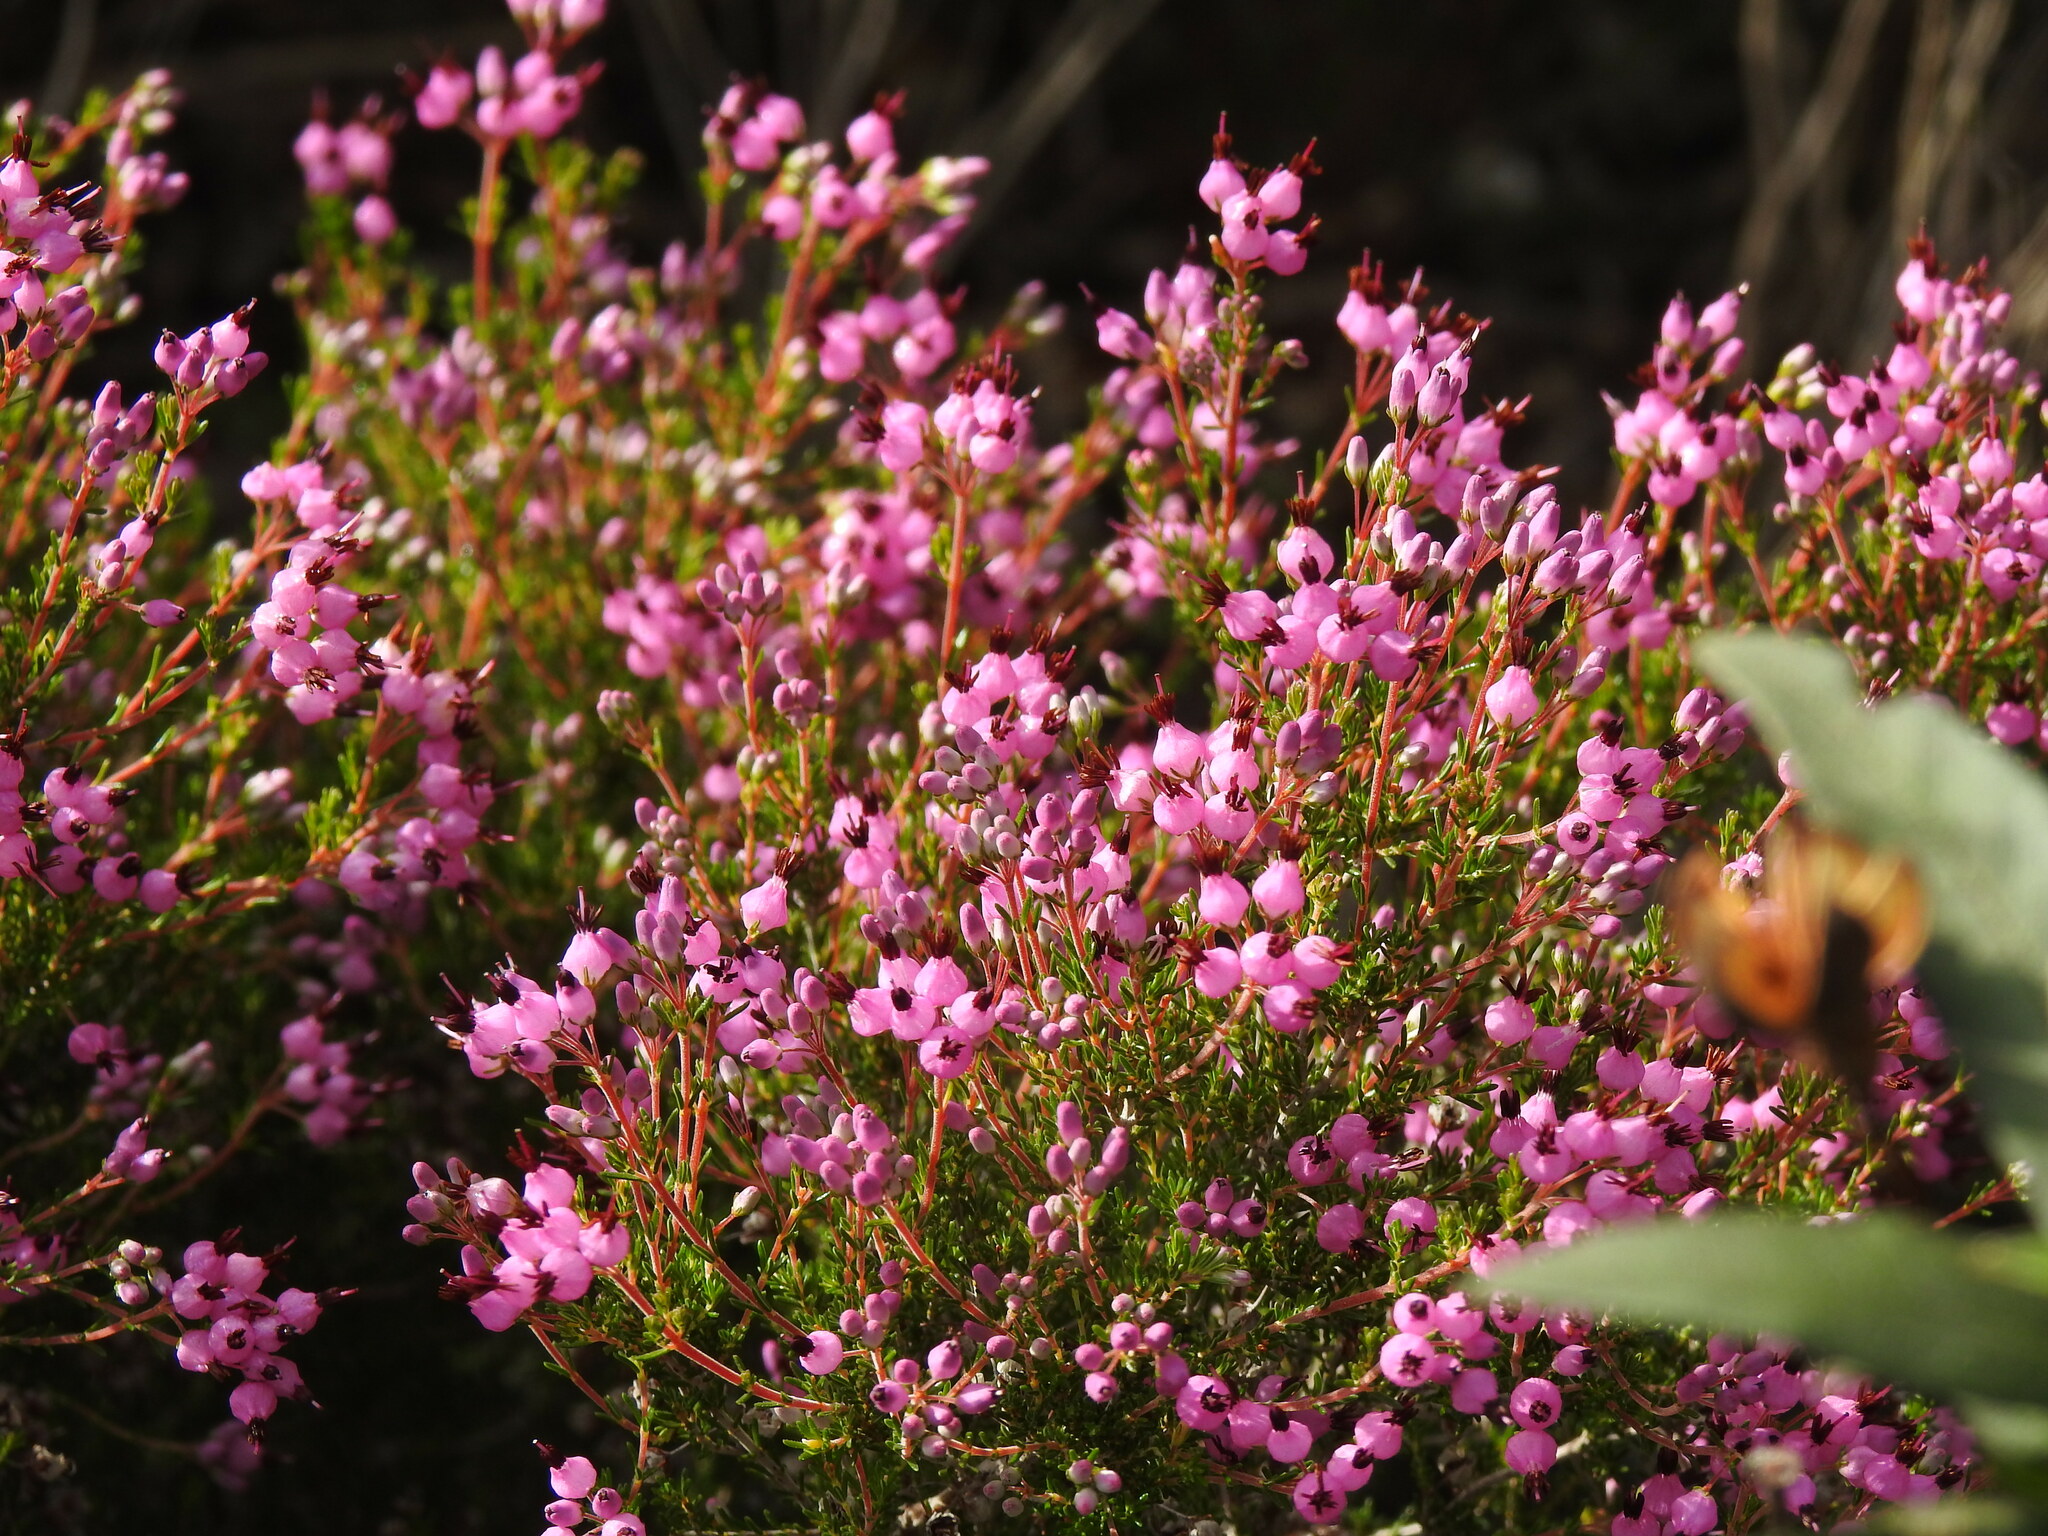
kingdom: Plantae
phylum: Tracheophyta
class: Magnoliopsida
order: Ericales
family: Ericaceae
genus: Erica
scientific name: Erica umbellata
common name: Dwarf spanish heath
